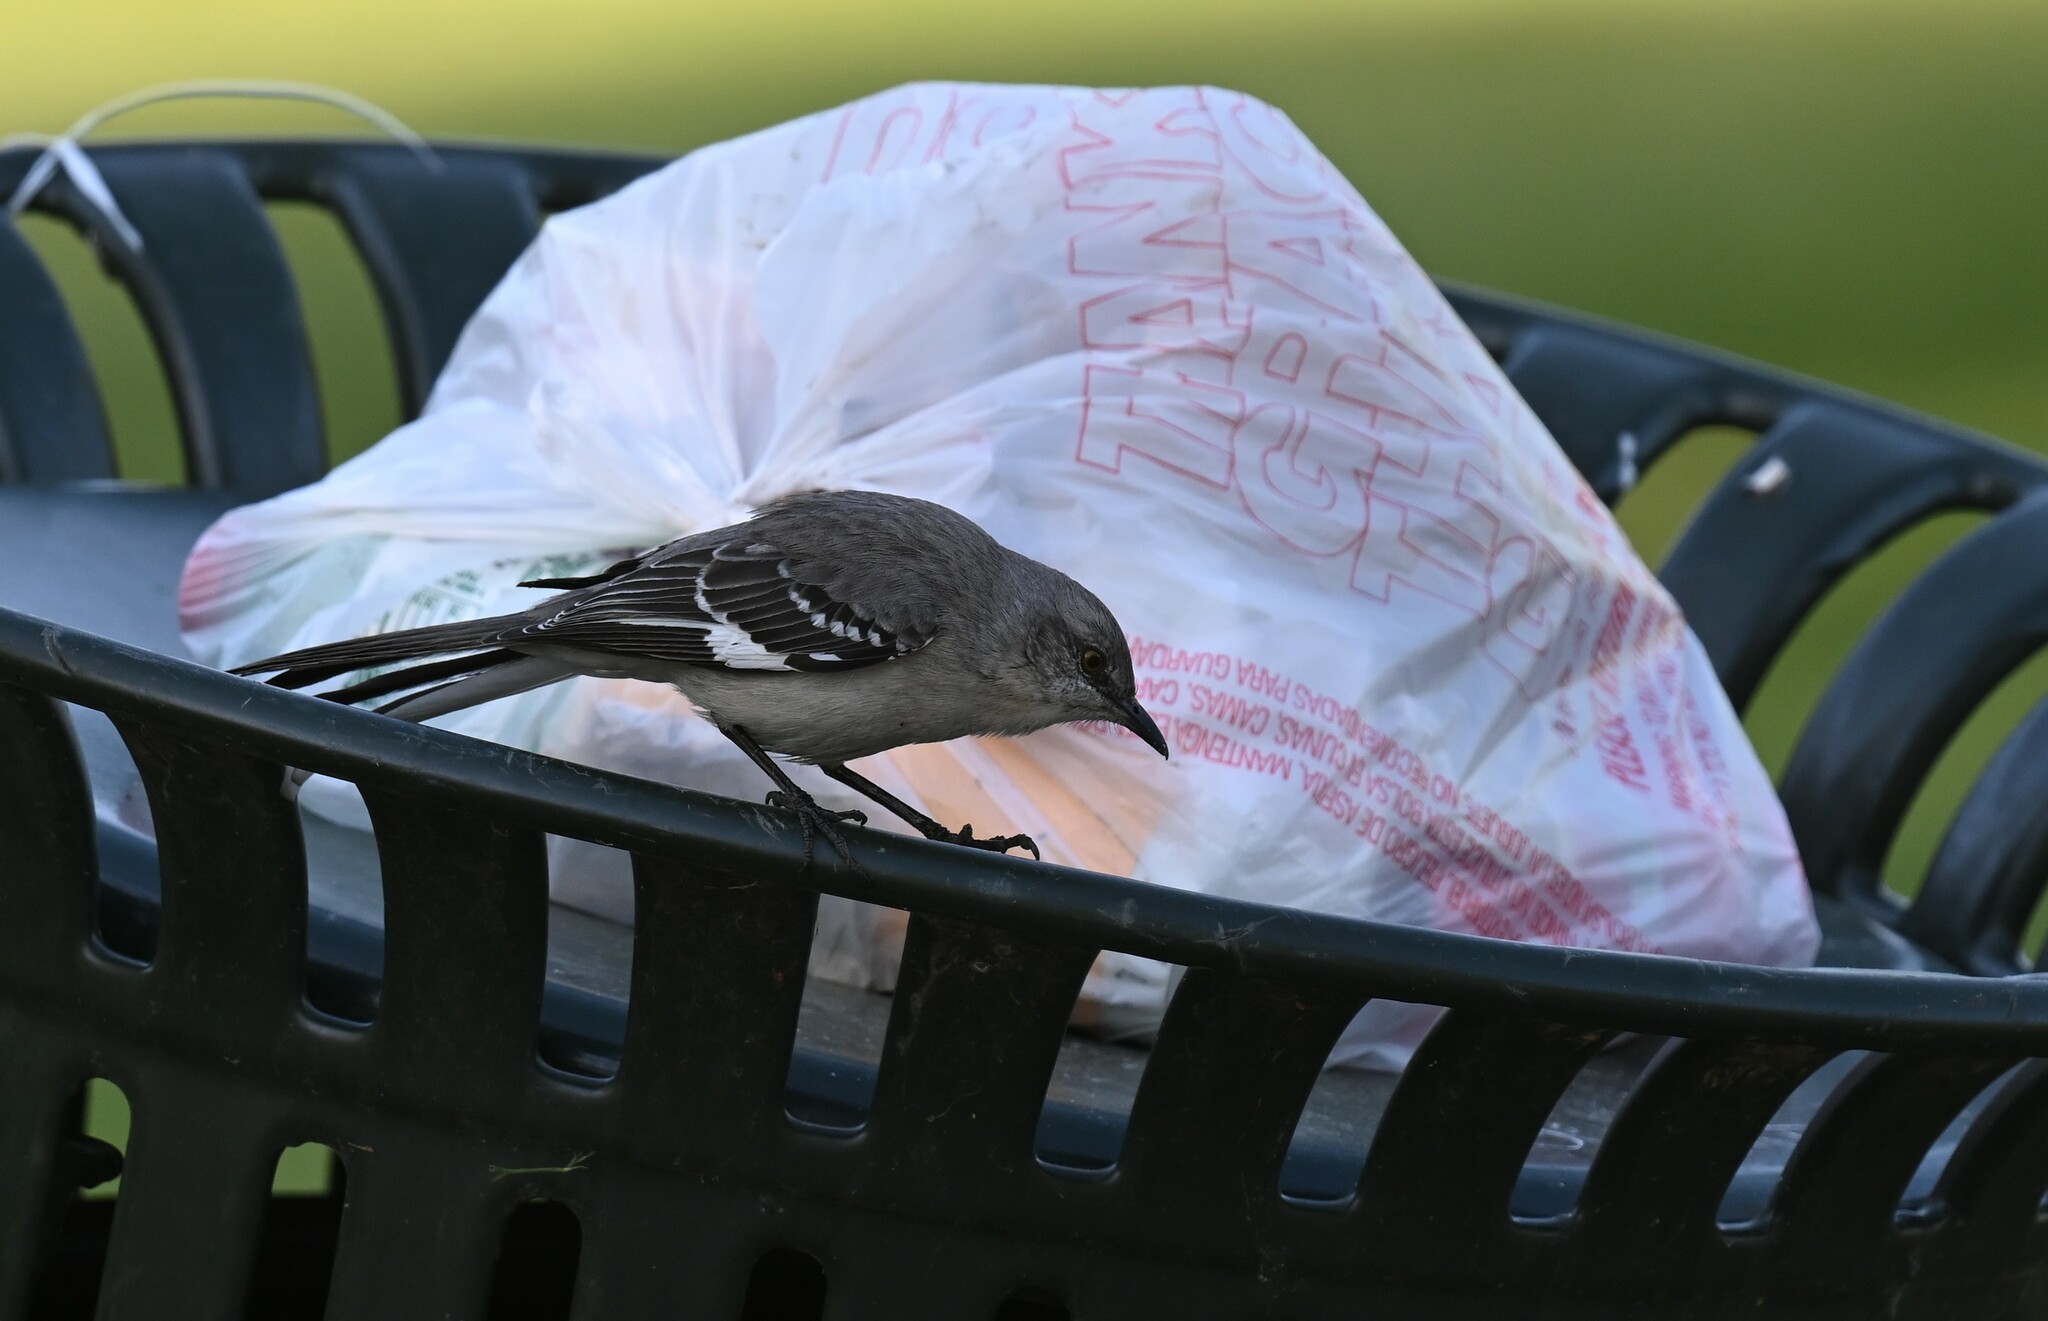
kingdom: Animalia
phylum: Chordata
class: Aves
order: Passeriformes
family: Mimidae
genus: Mimus
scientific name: Mimus polyglottos
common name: Northern mockingbird
